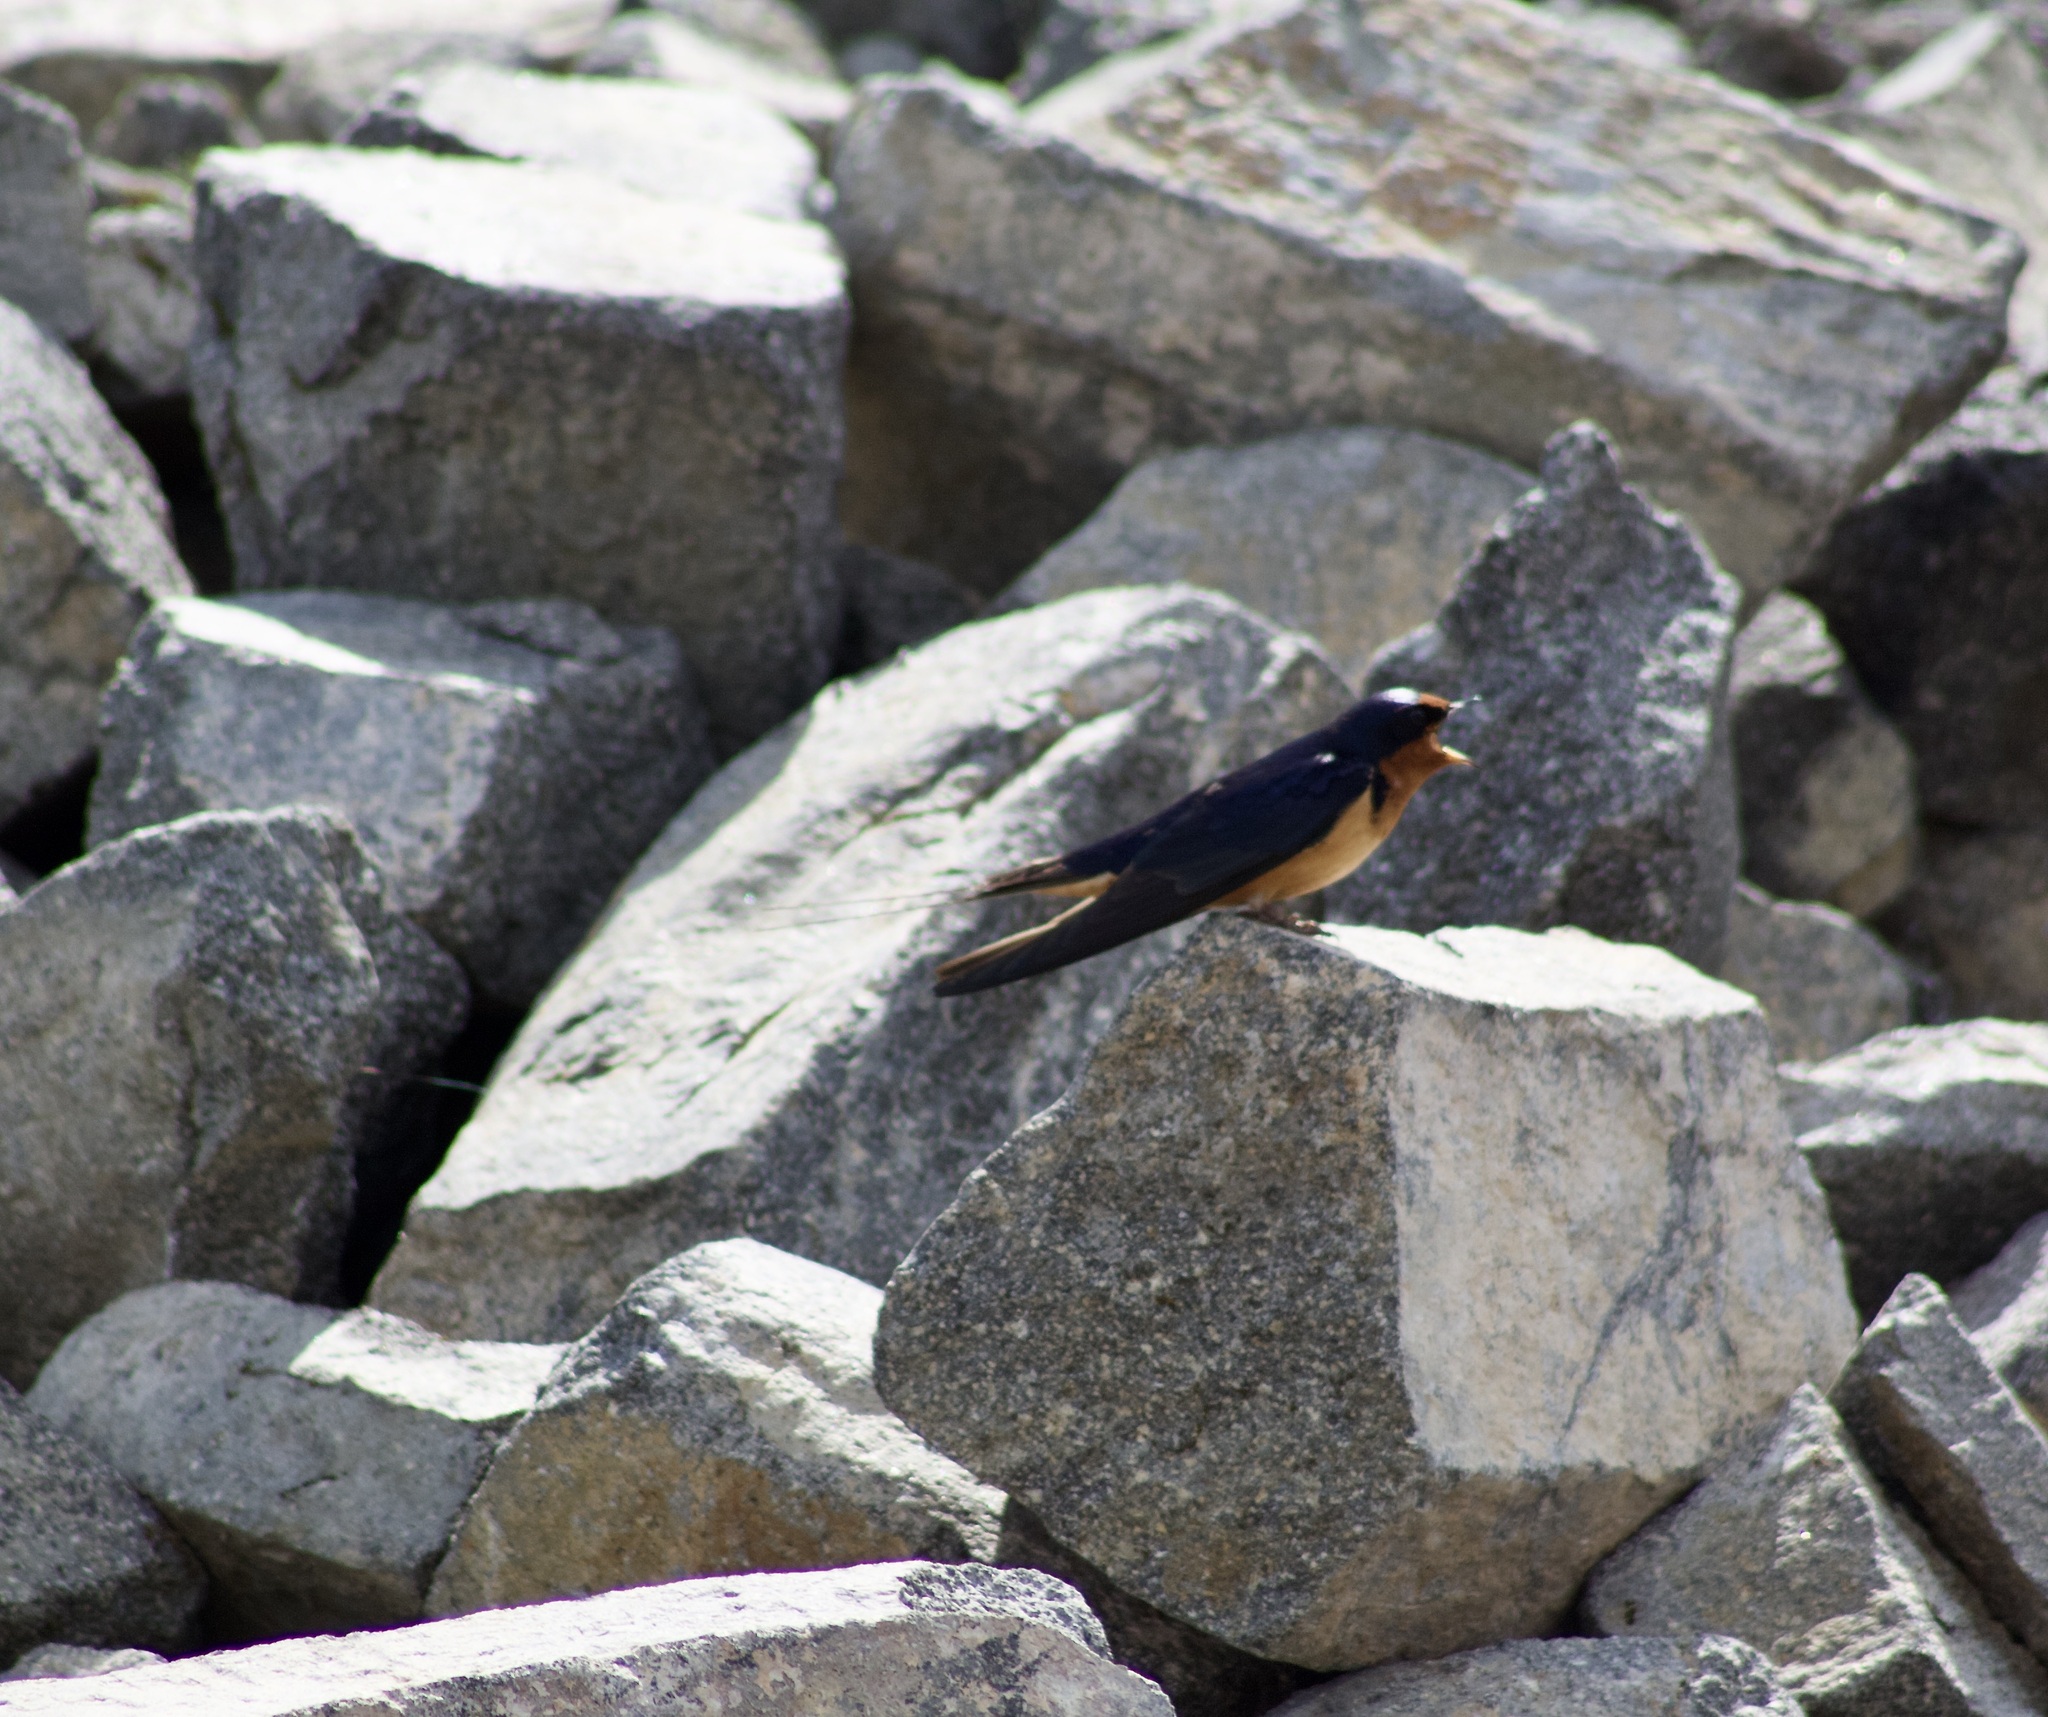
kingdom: Animalia
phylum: Chordata
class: Aves
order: Passeriformes
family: Hirundinidae
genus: Hirundo
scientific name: Hirundo rustica
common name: Barn swallow
